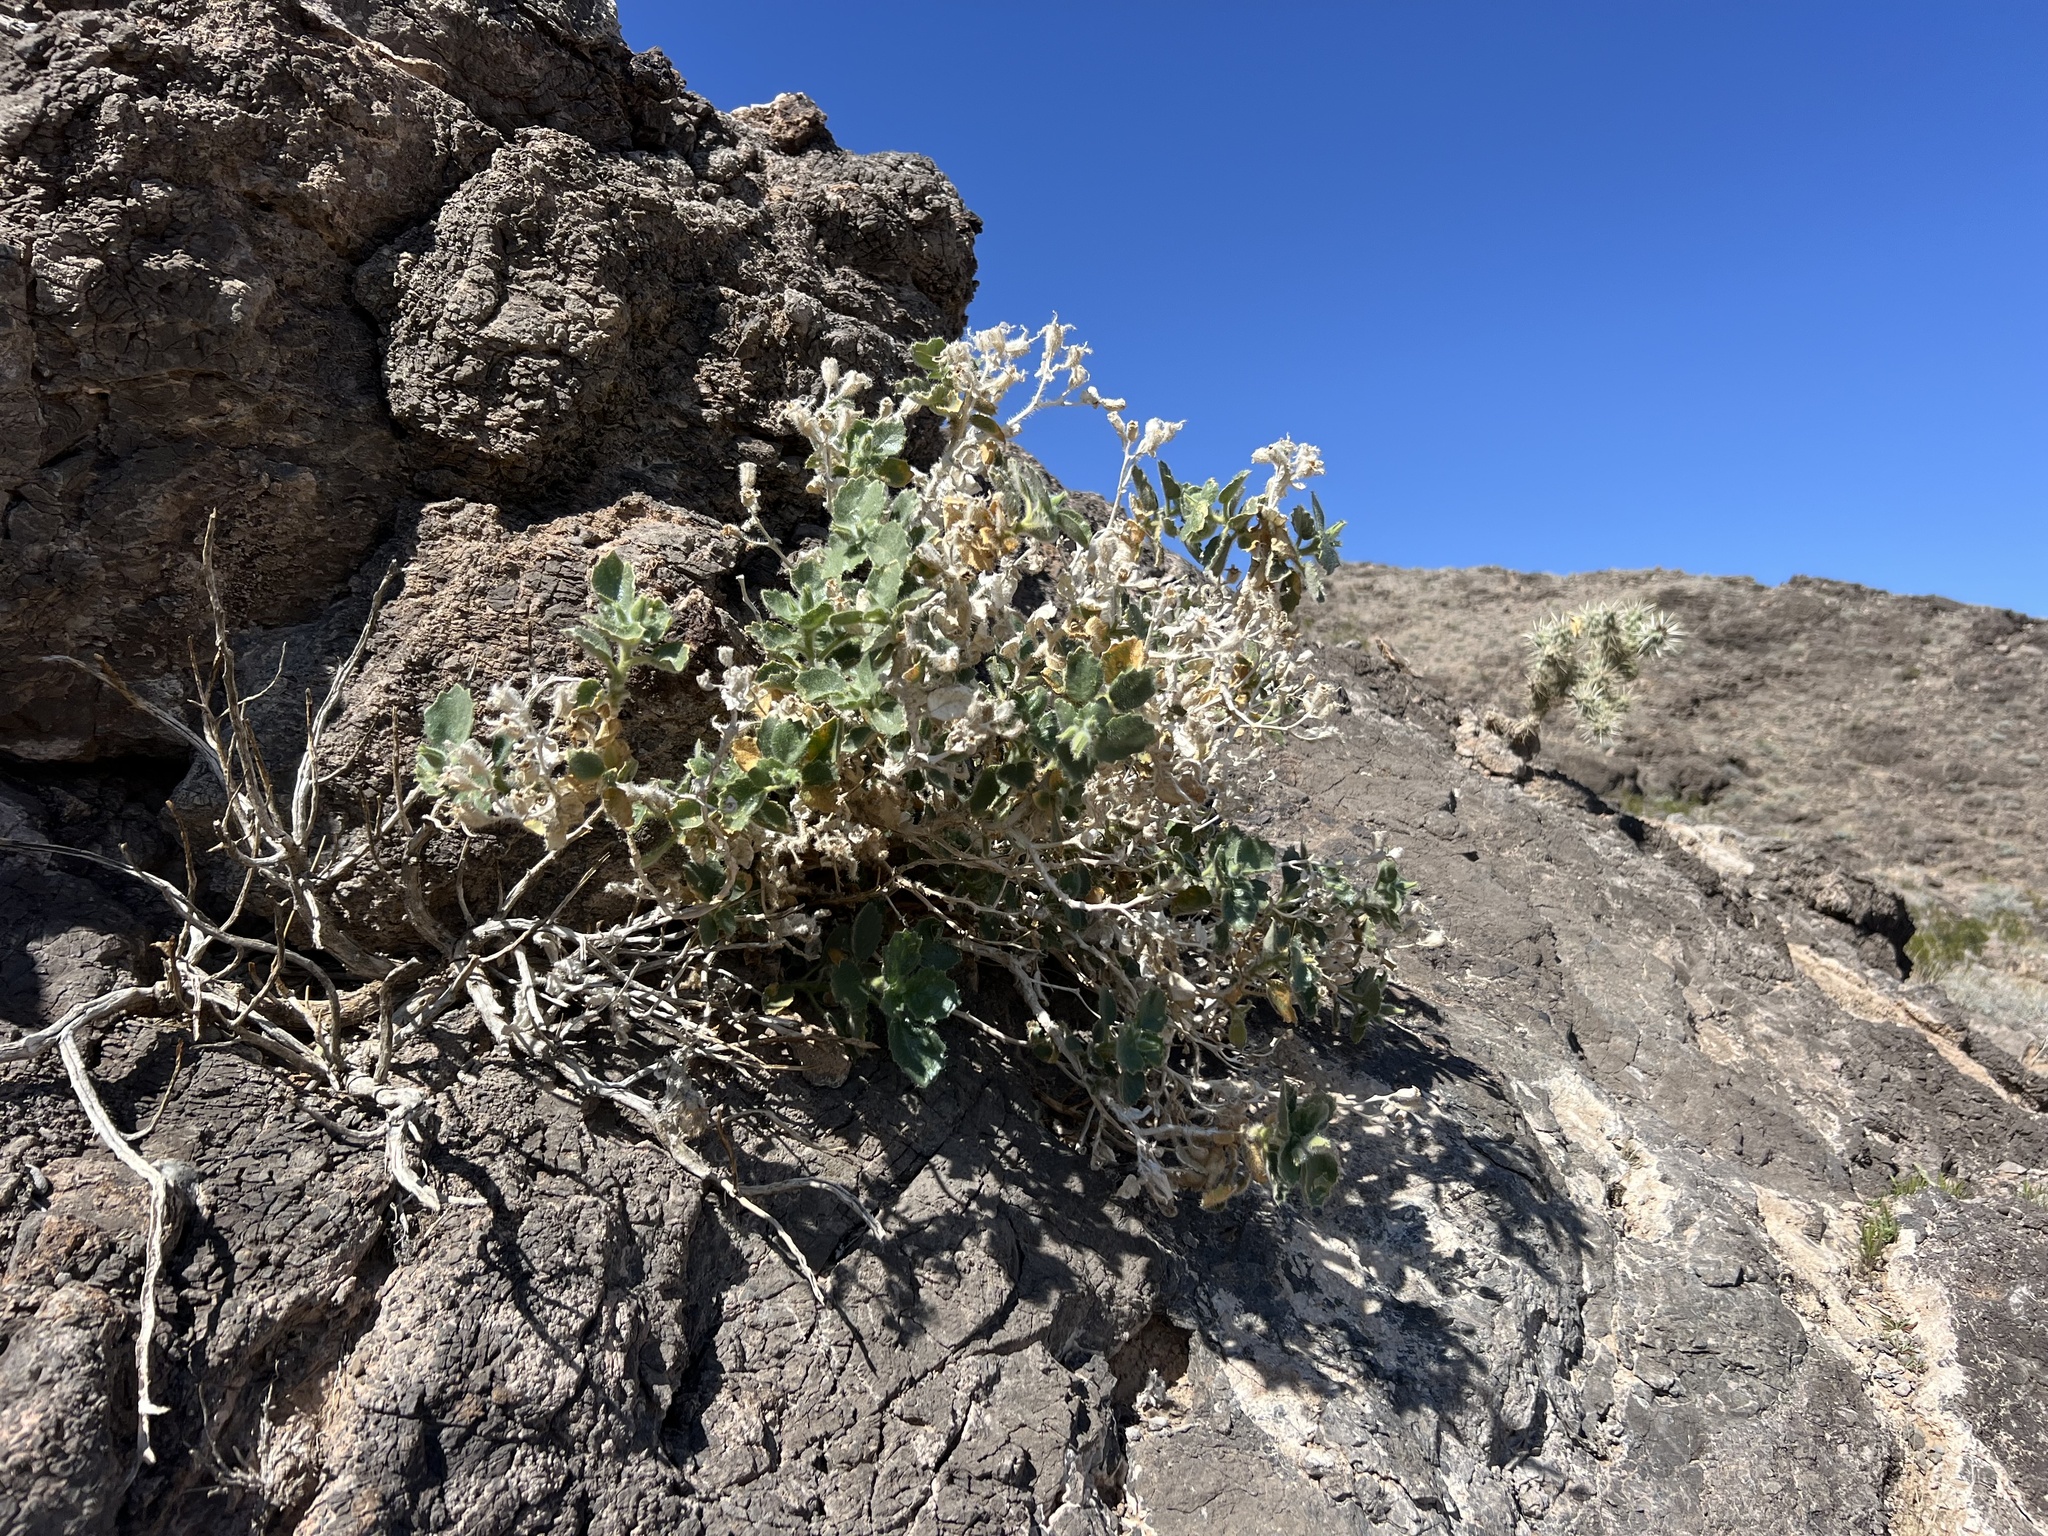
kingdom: Plantae
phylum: Tracheophyta
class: Magnoliopsida
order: Cornales
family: Loasaceae
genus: Eucnide
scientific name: Eucnide urens
